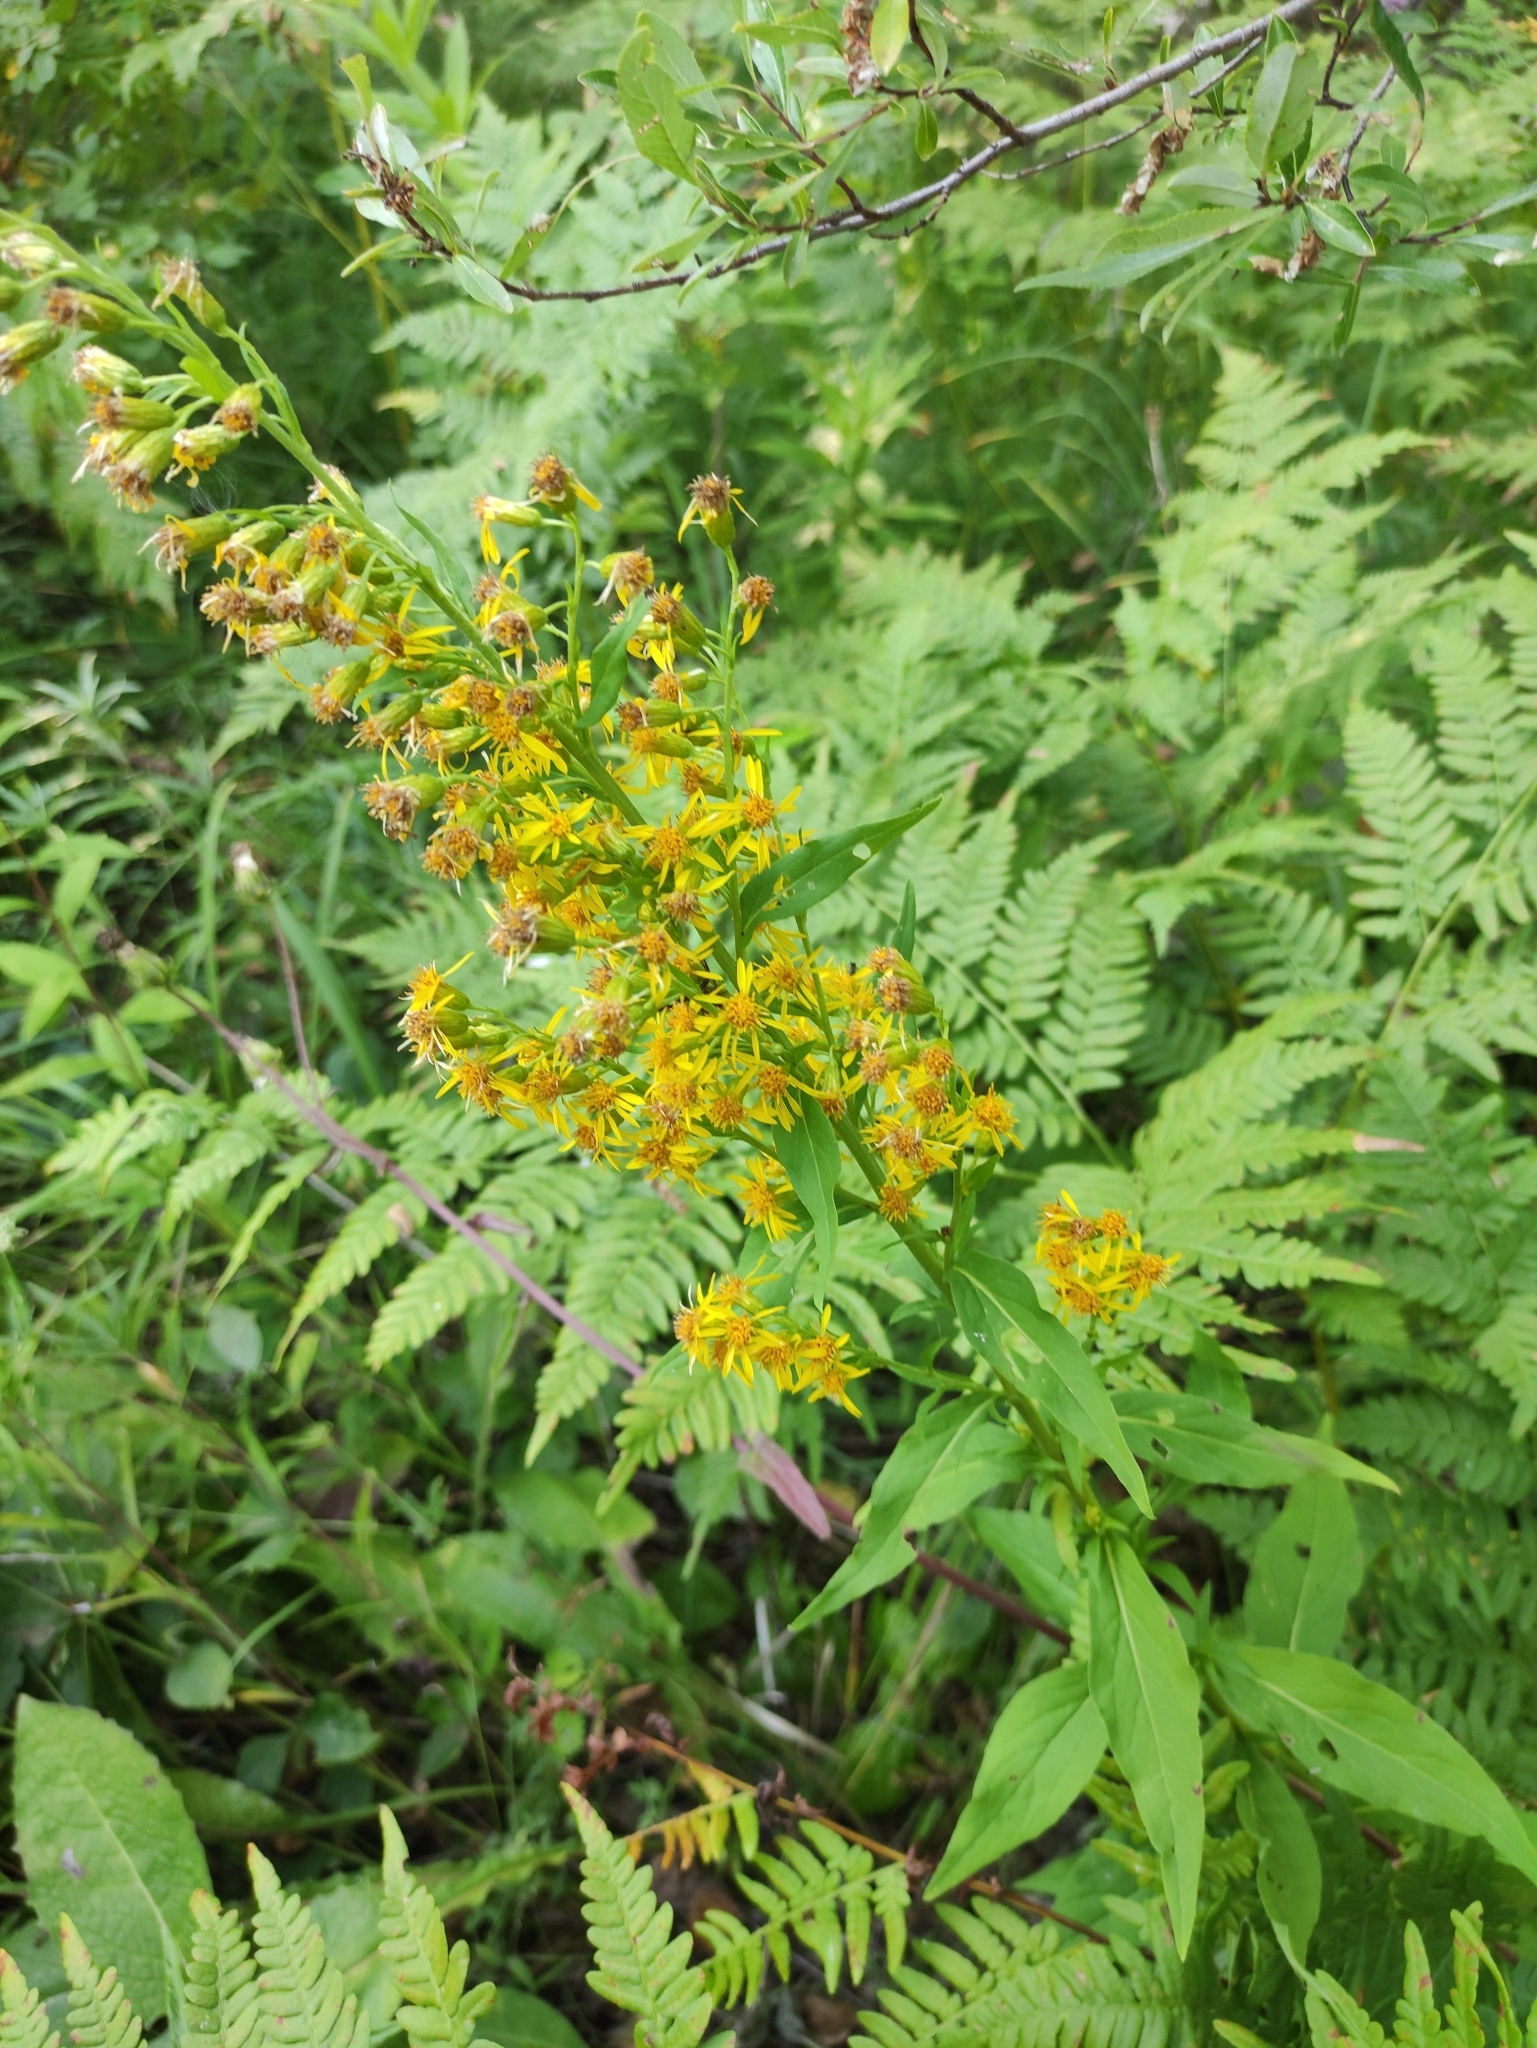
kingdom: Plantae
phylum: Tracheophyta
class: Magnoliopsida
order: Asterales
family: Asteraceae
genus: Solidago
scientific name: Solidago dahurica
